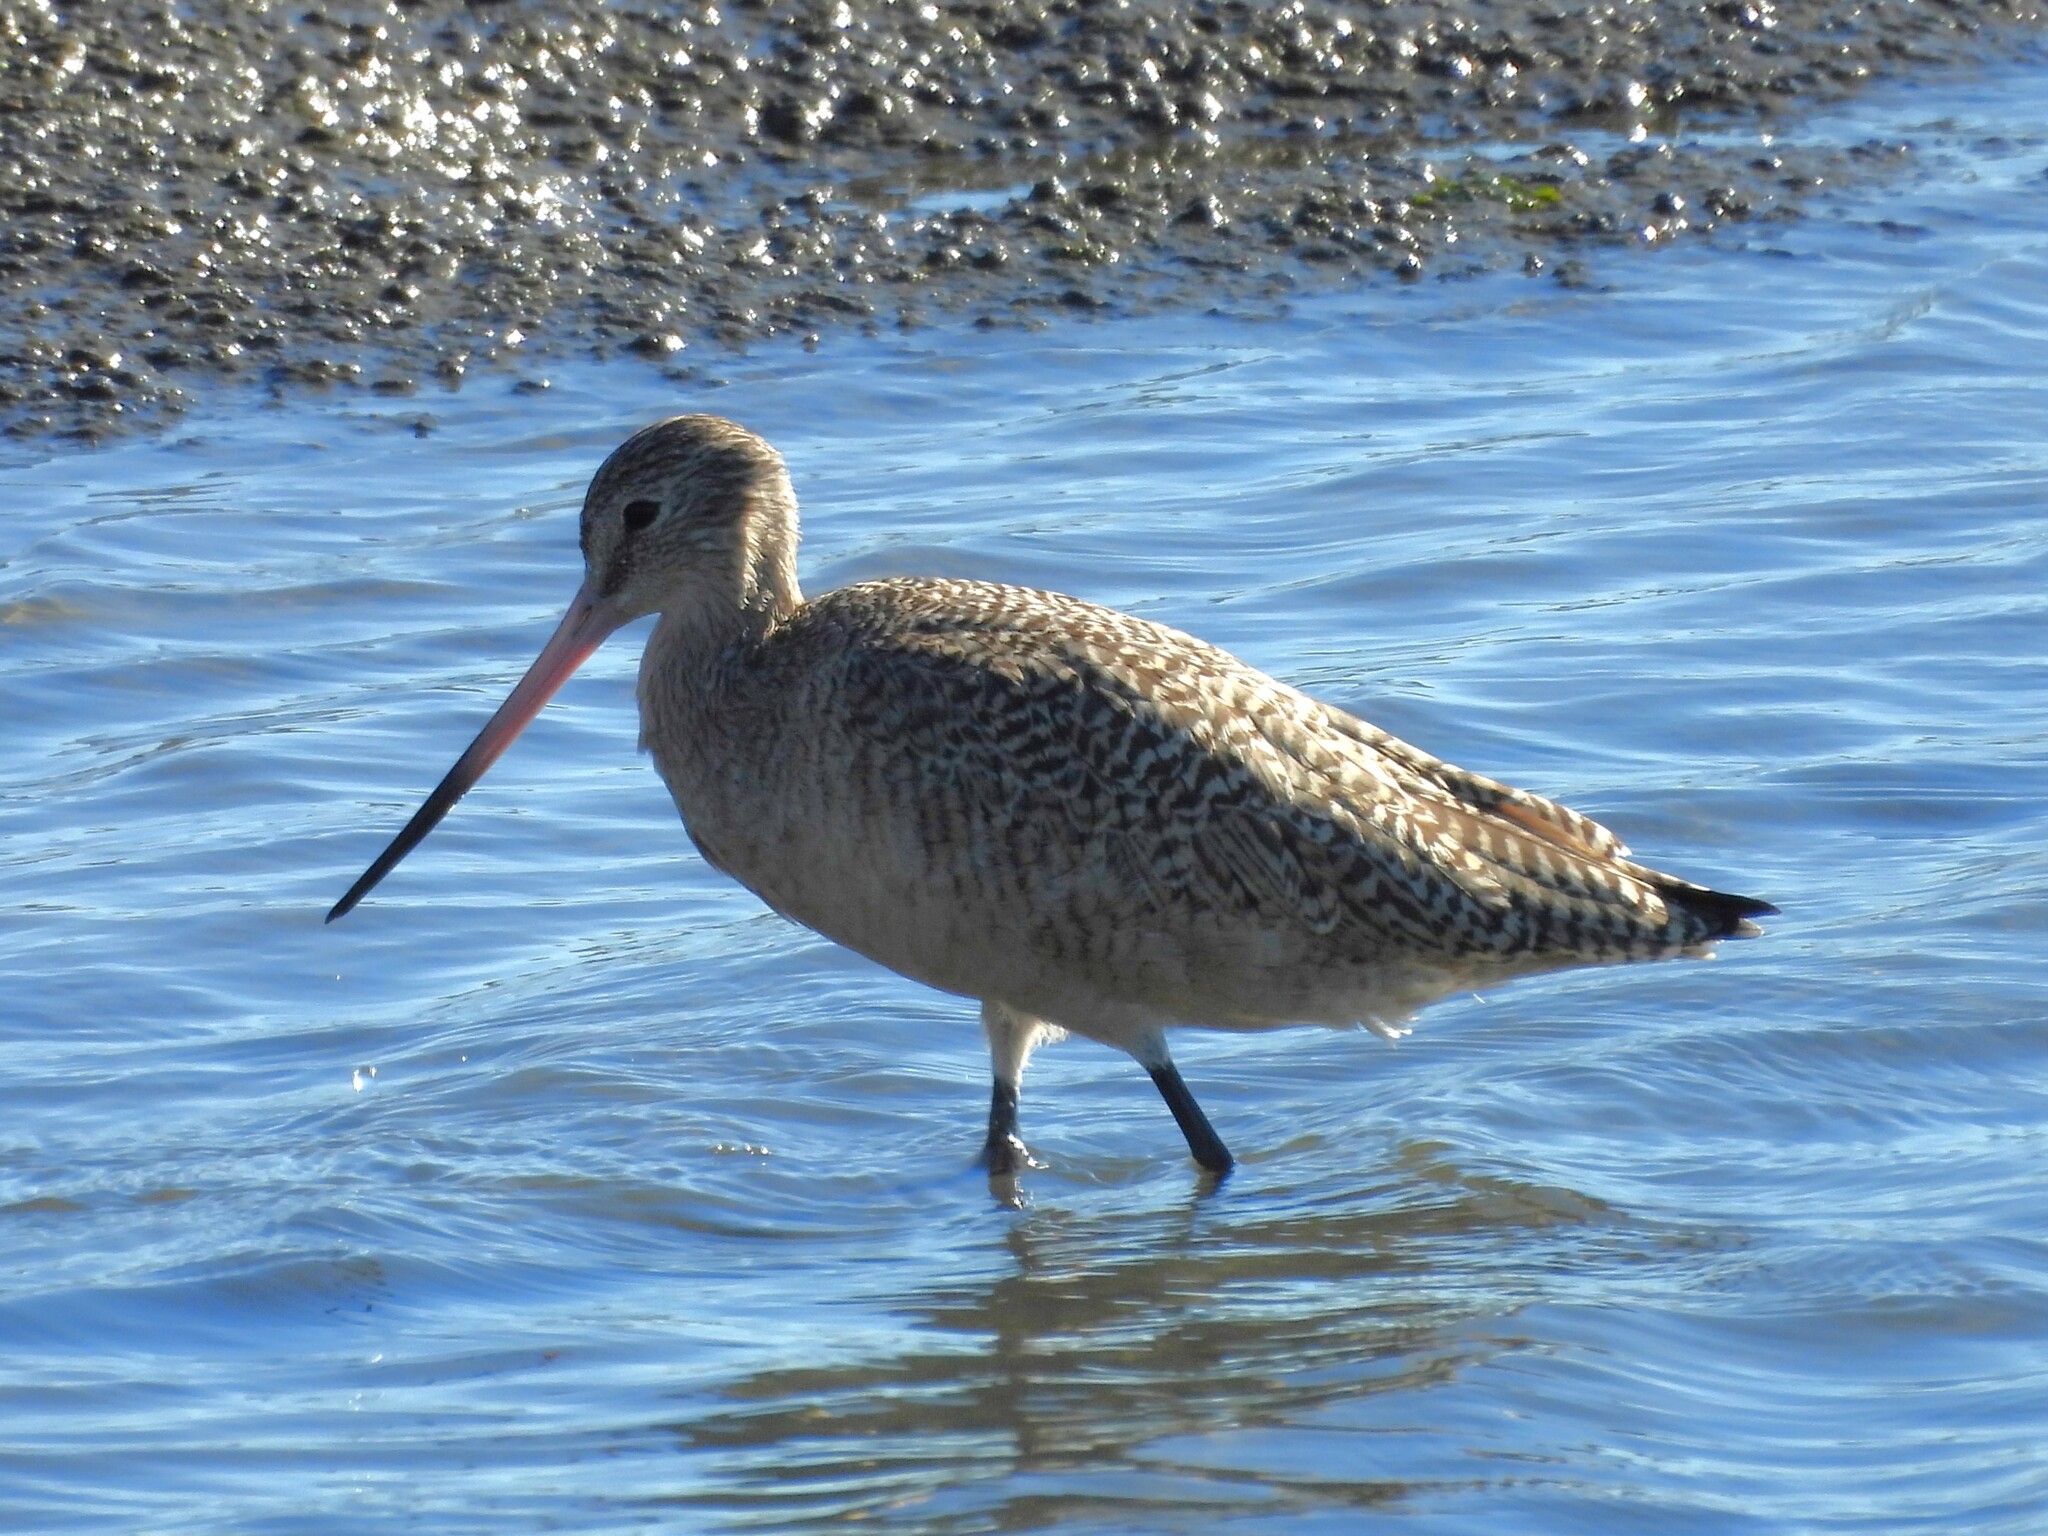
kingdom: Animalia
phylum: Chordata
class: Aves
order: Charadriiformes
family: Scolopacidae
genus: Limosa
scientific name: Limosa fedoa
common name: Marbled godwit
